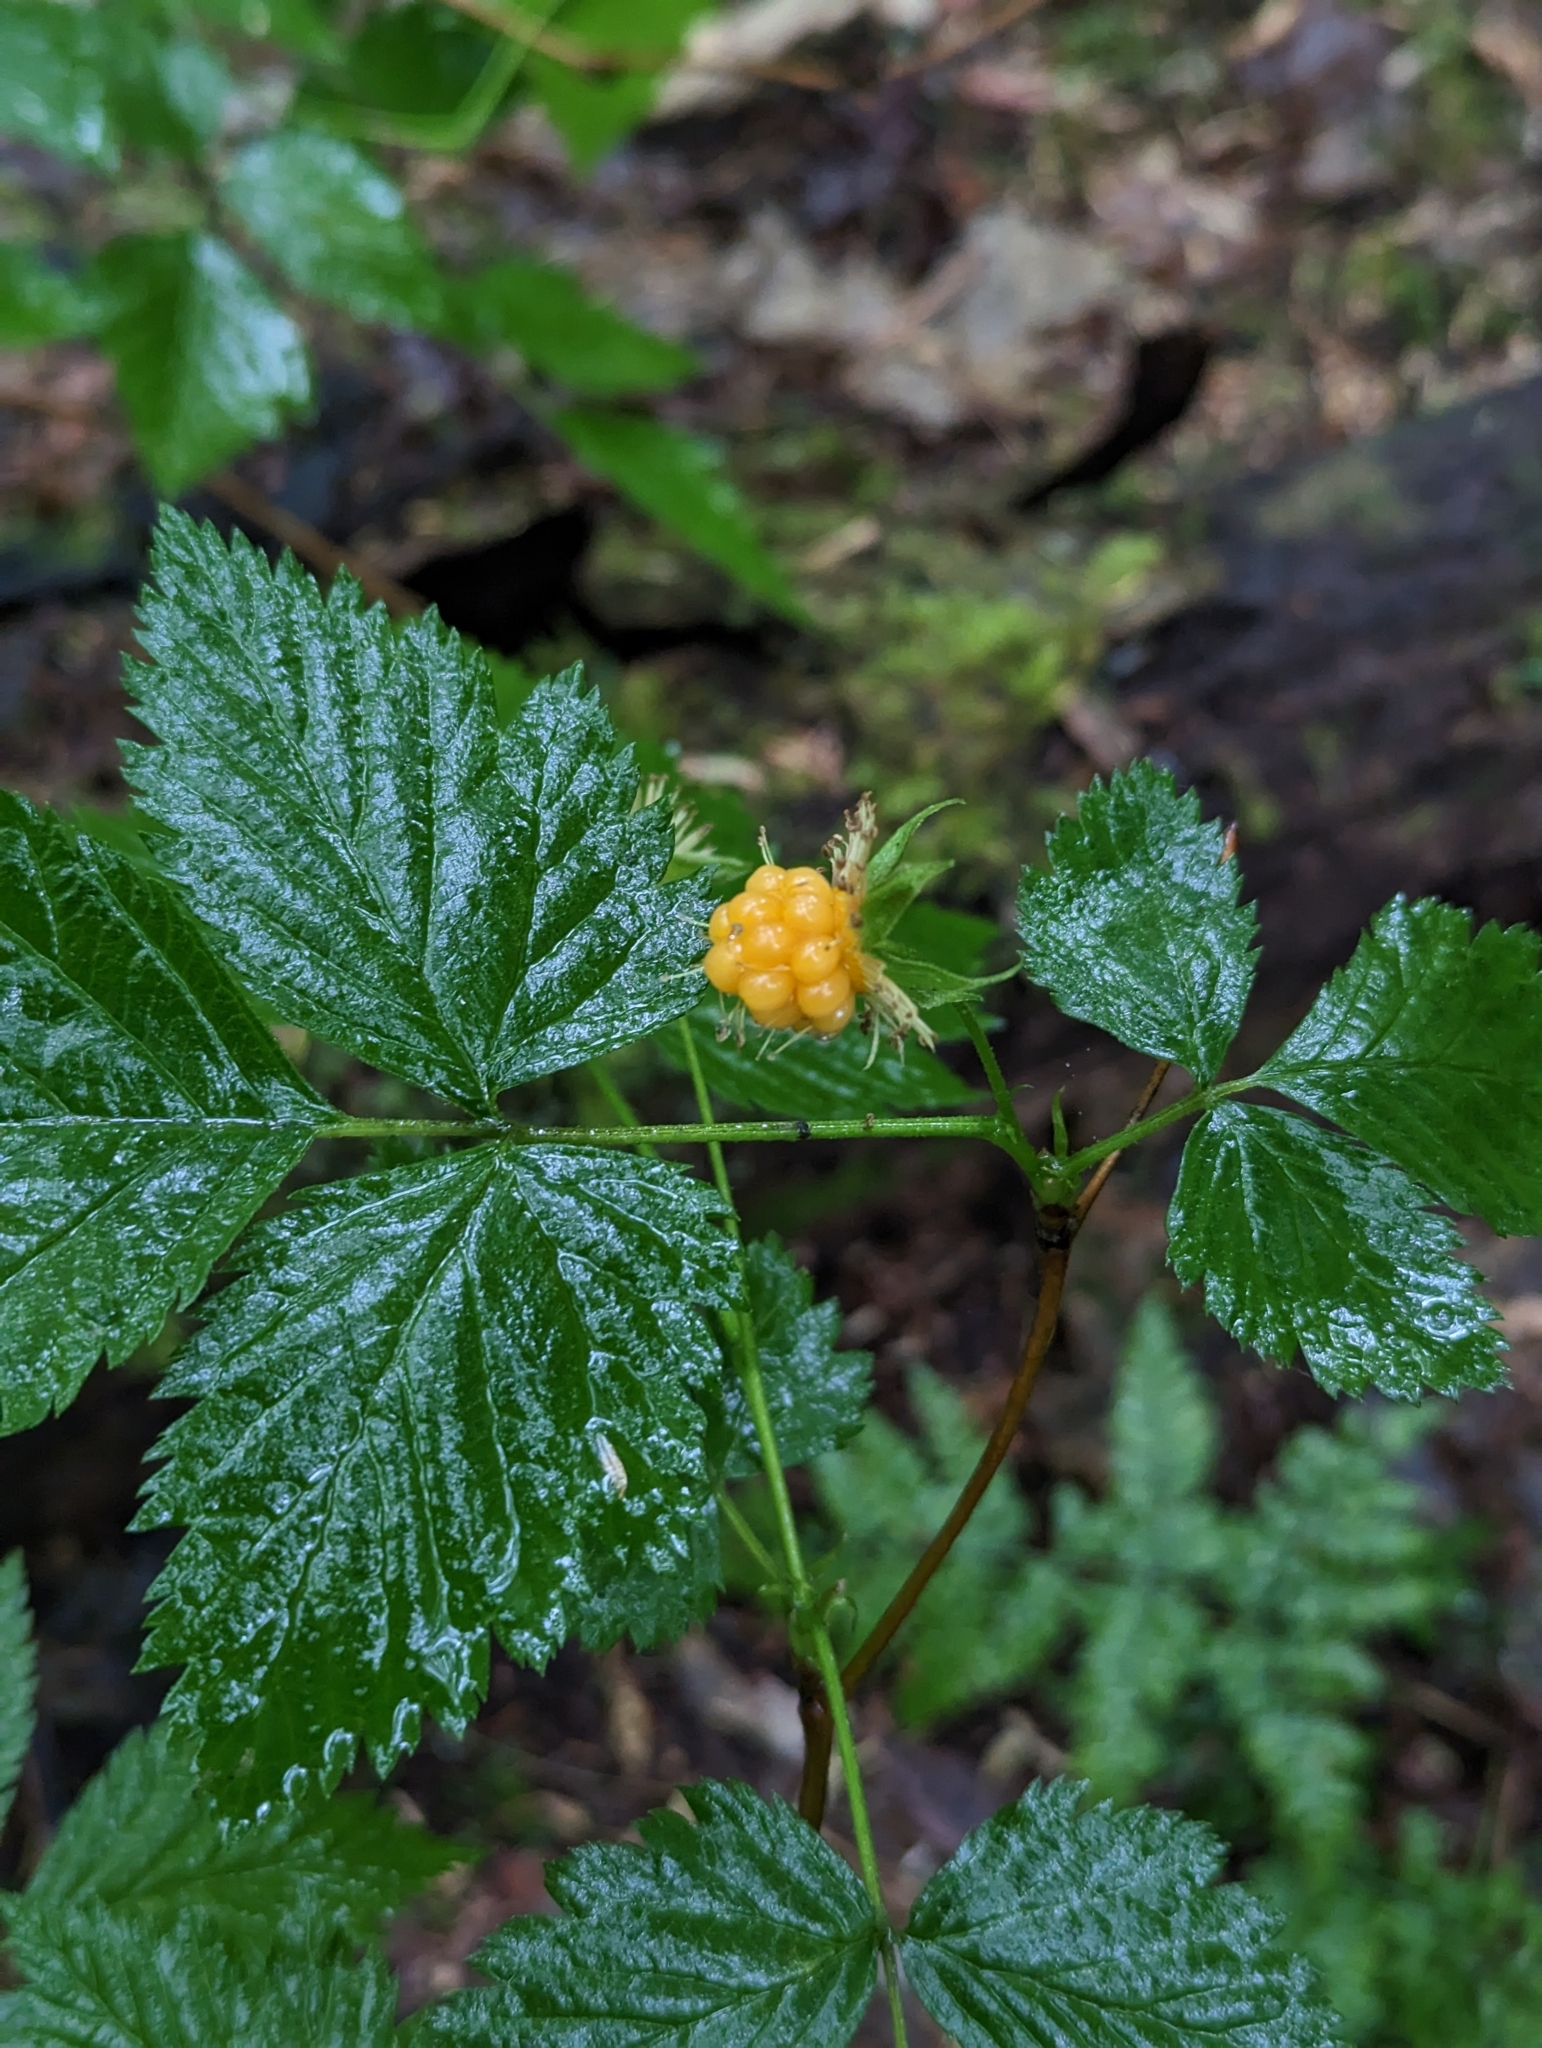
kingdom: Plantae
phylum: Tracheophyta
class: Magnoliopsida
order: Rosales
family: Rosaceae
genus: Rubus
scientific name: Rubus spectabilis
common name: Salmonberry
